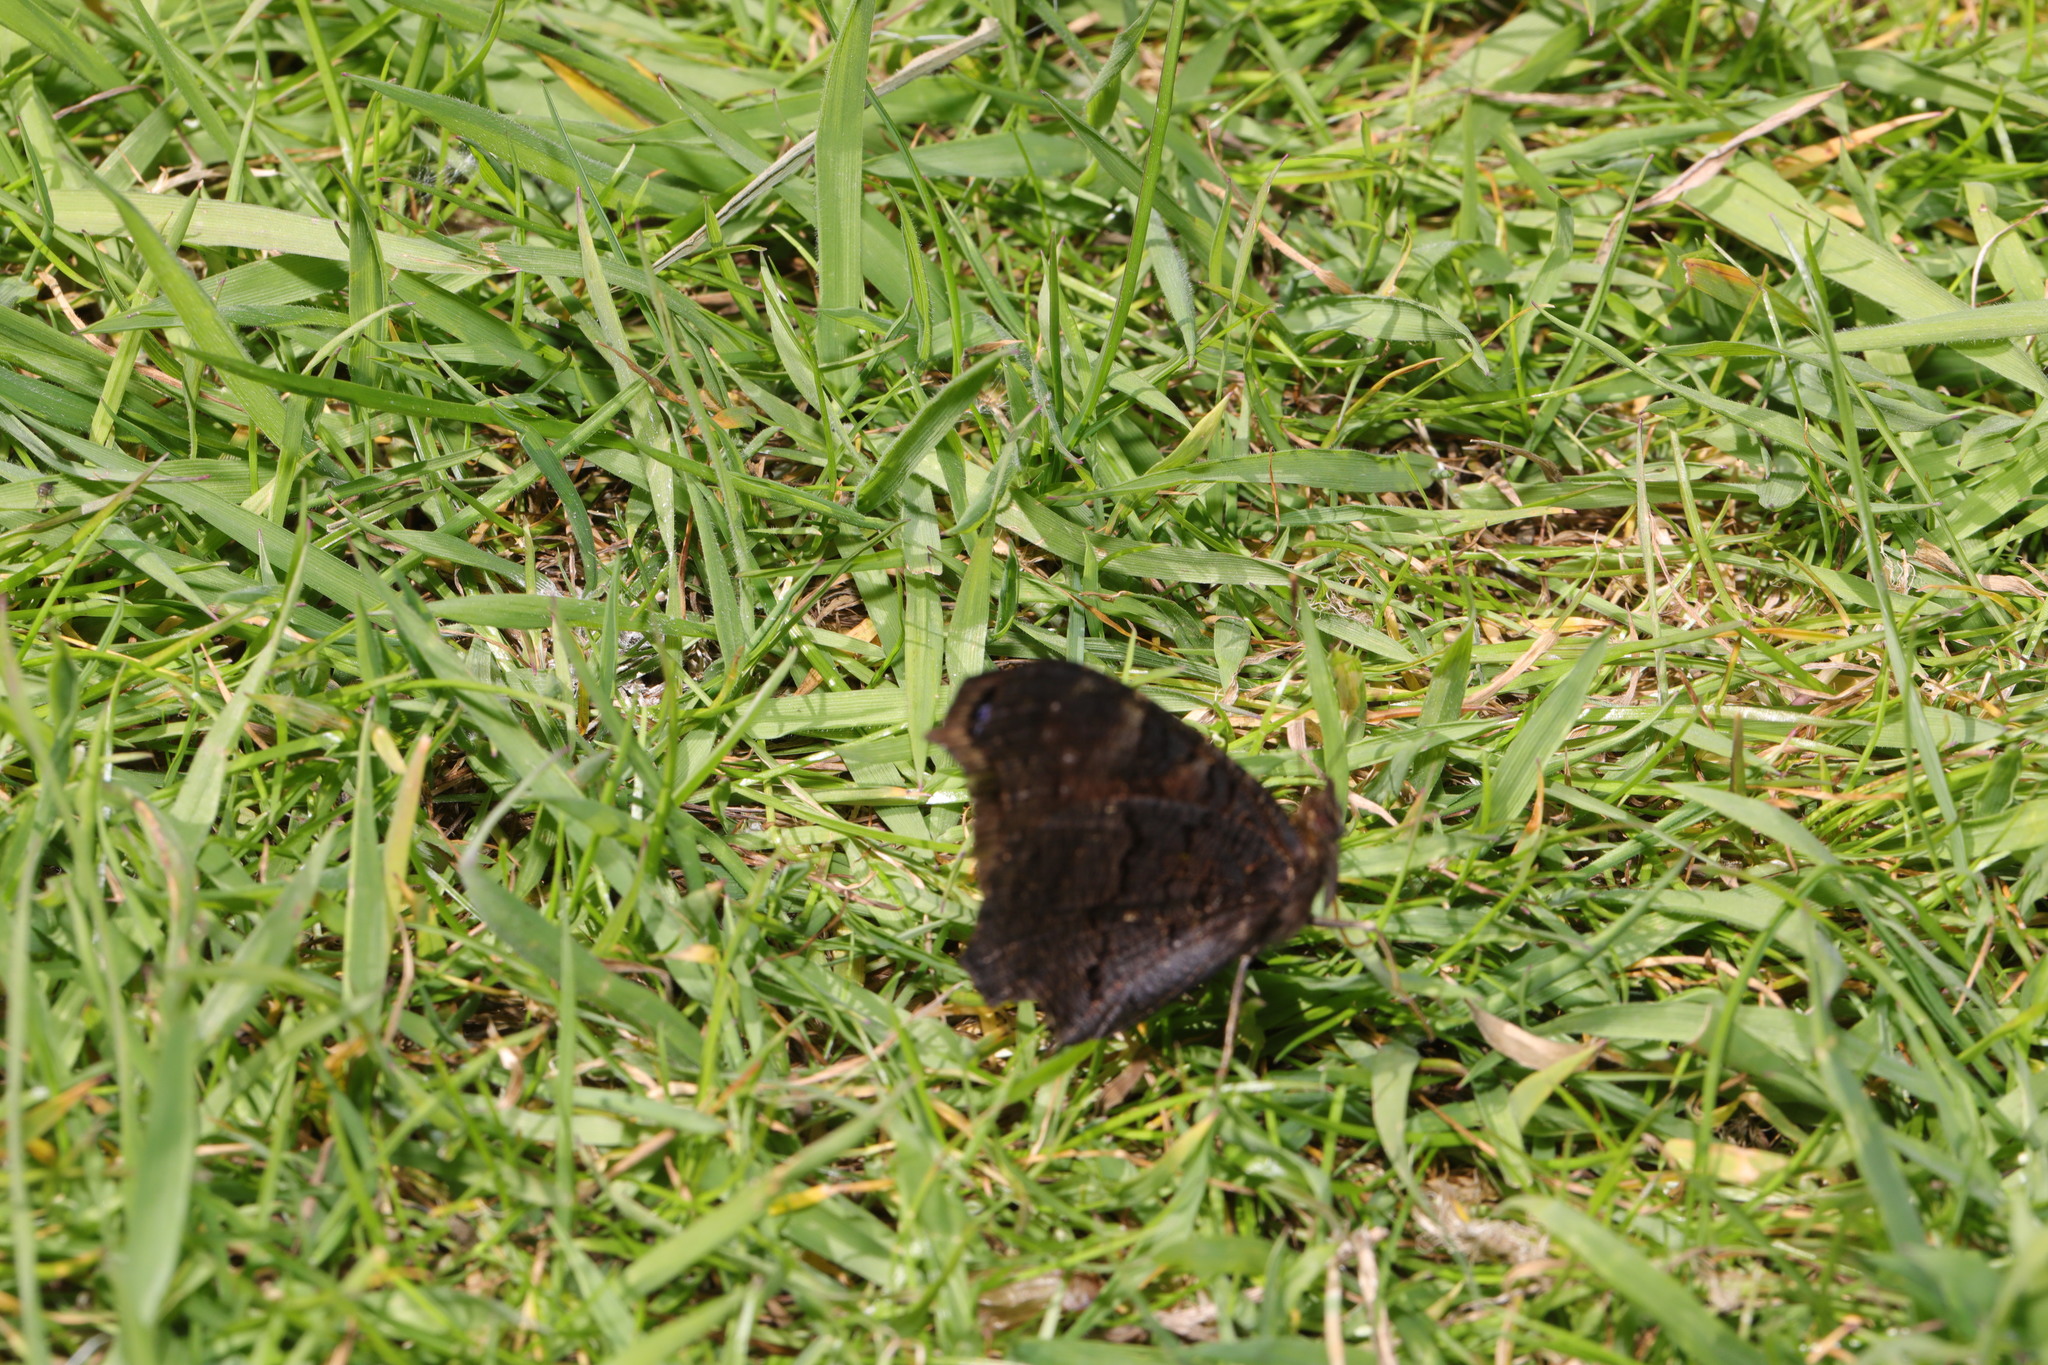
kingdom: Animalia
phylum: Arthropoda
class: Insecta
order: Lepidoptera
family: Nymphalidae
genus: Aglais
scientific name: Aglais io
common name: Peacock
